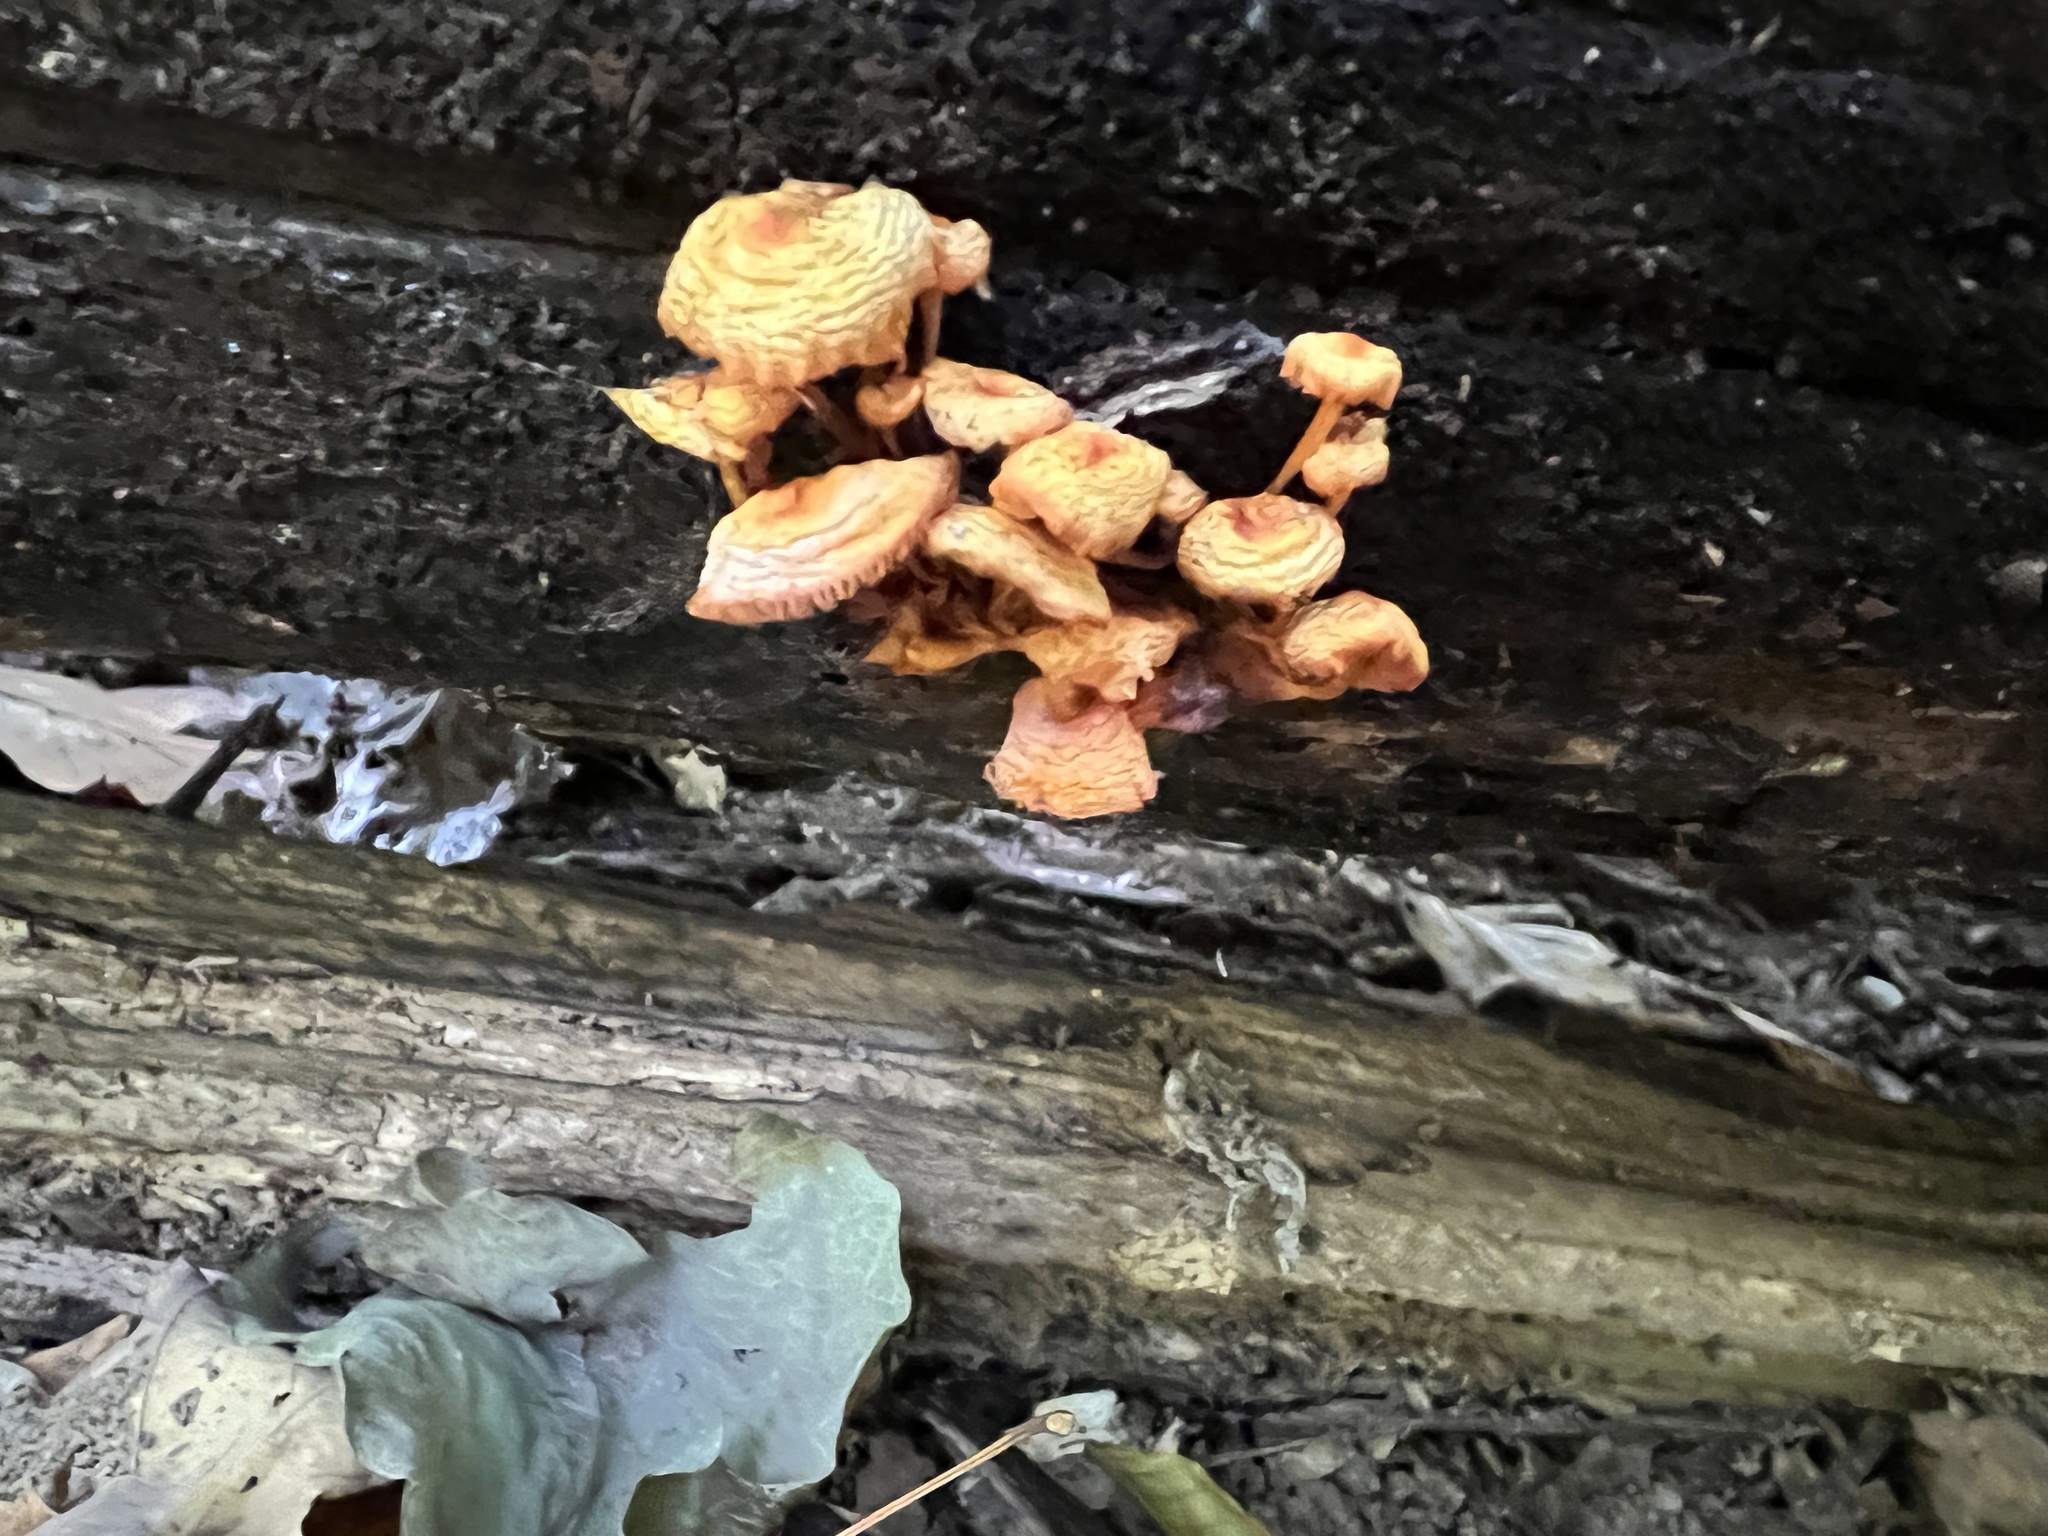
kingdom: Fungi
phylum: Basidiomycota
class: Agaricomycetes
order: Agaricales
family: Mycenaceae
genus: Mycena
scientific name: Mycena leaiana
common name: Orange mycena
